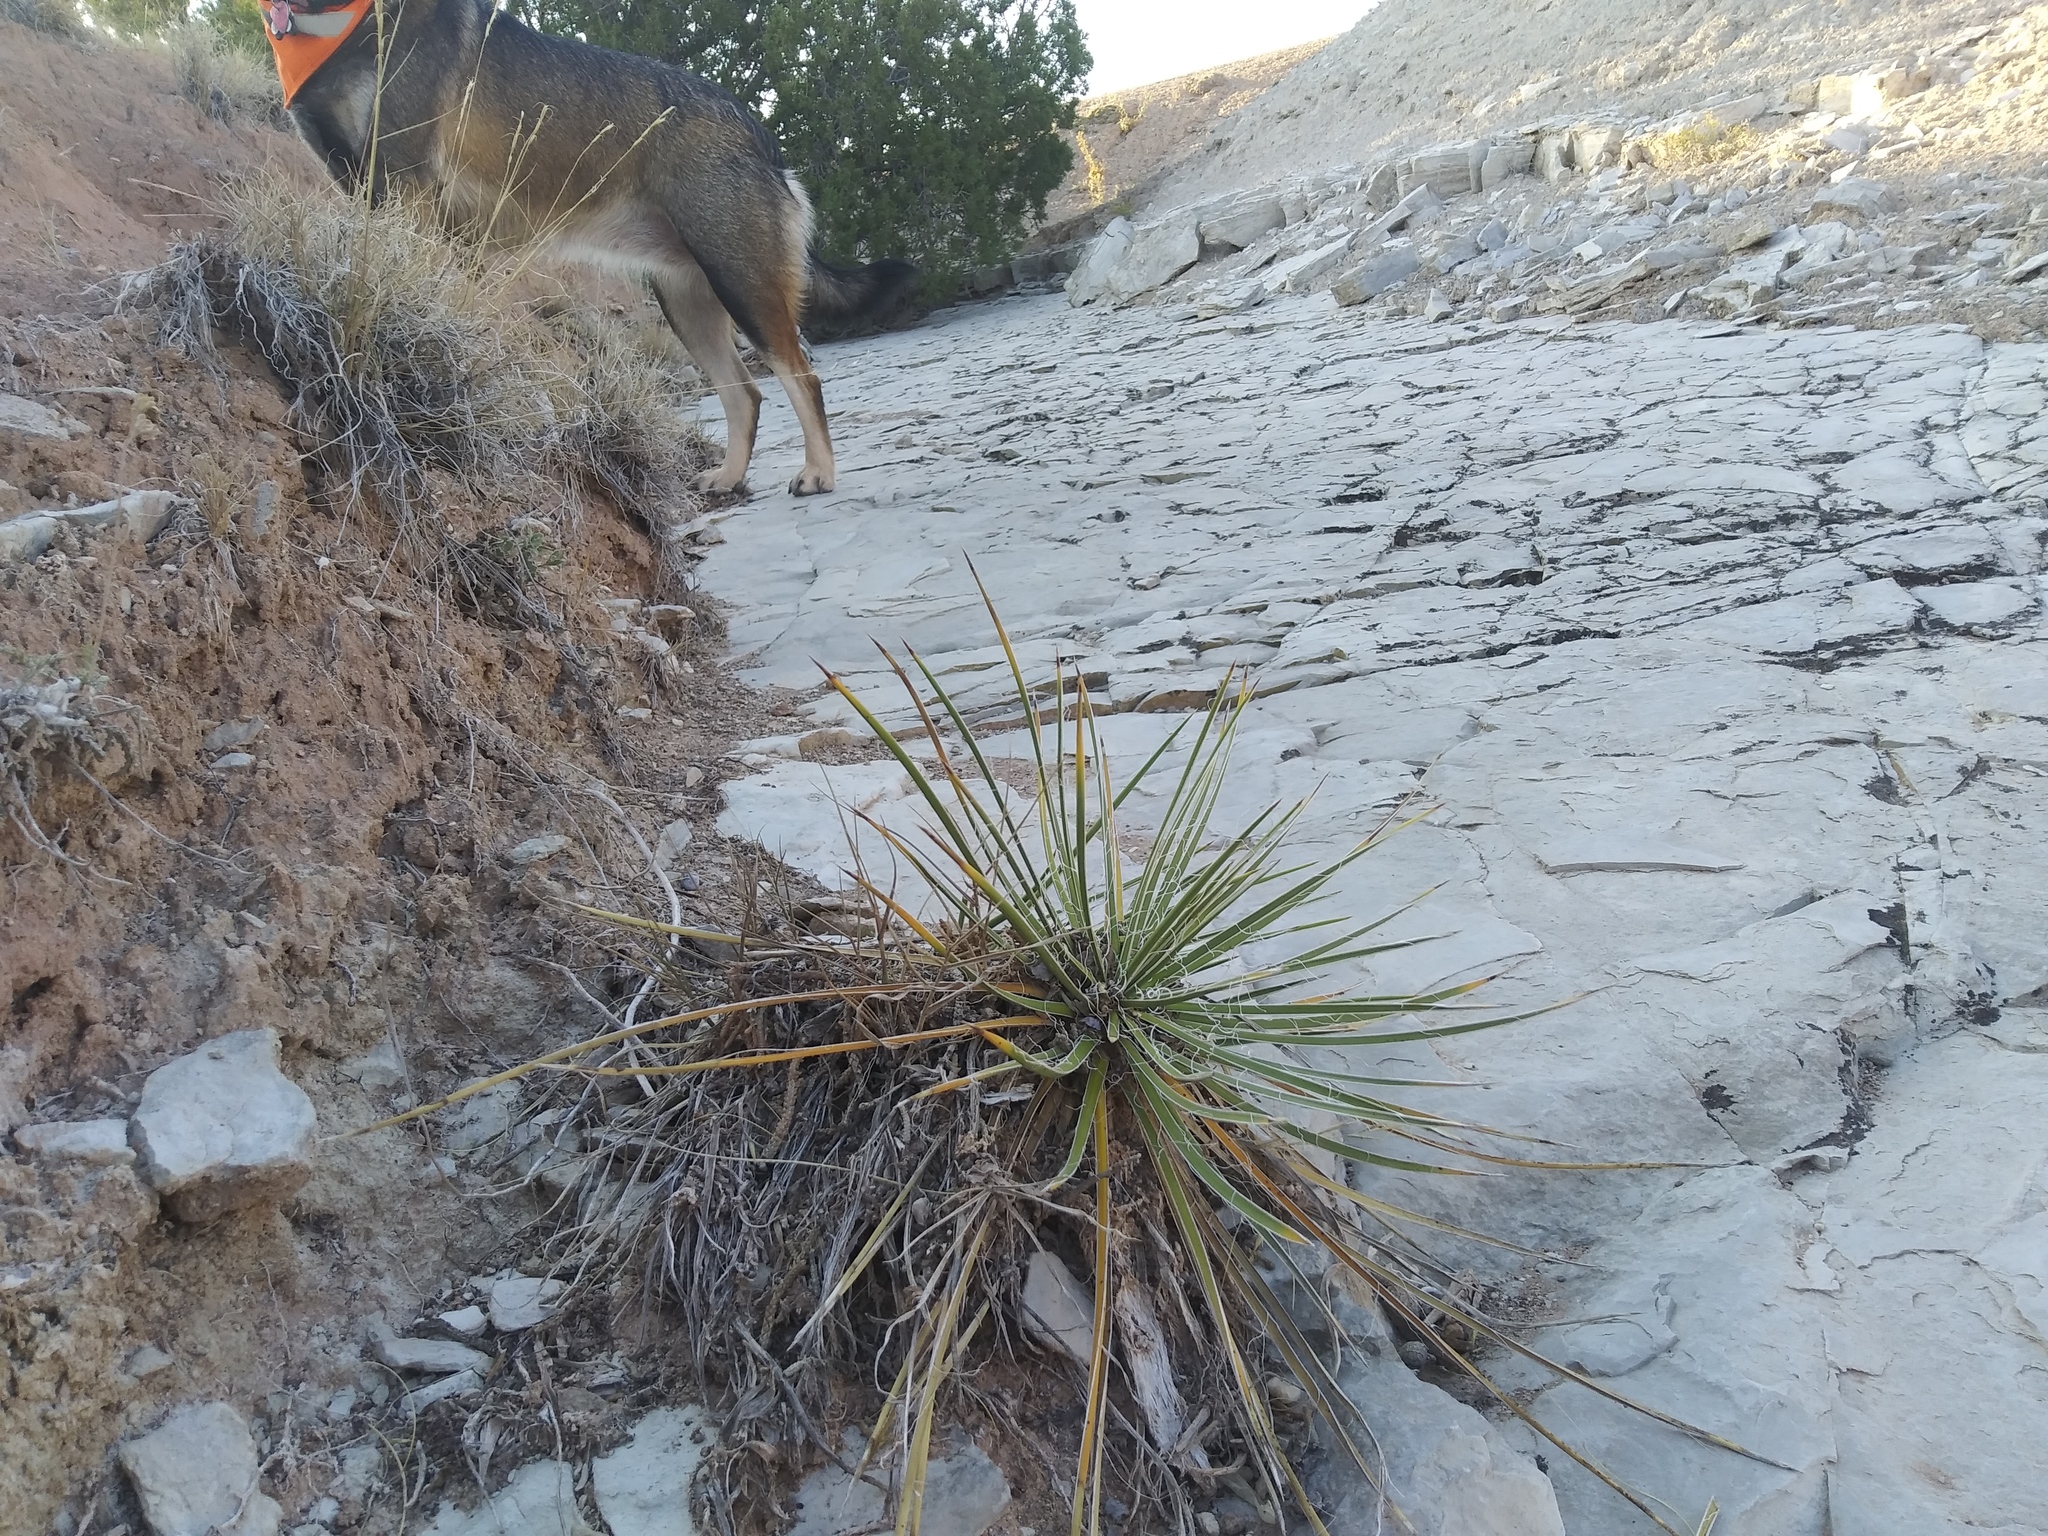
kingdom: Plantae
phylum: Tracheophyta
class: Liliopsida
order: Asparagales
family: Asparagaceae
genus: Yucca
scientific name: Yucca glauca
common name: Great plains yucca
